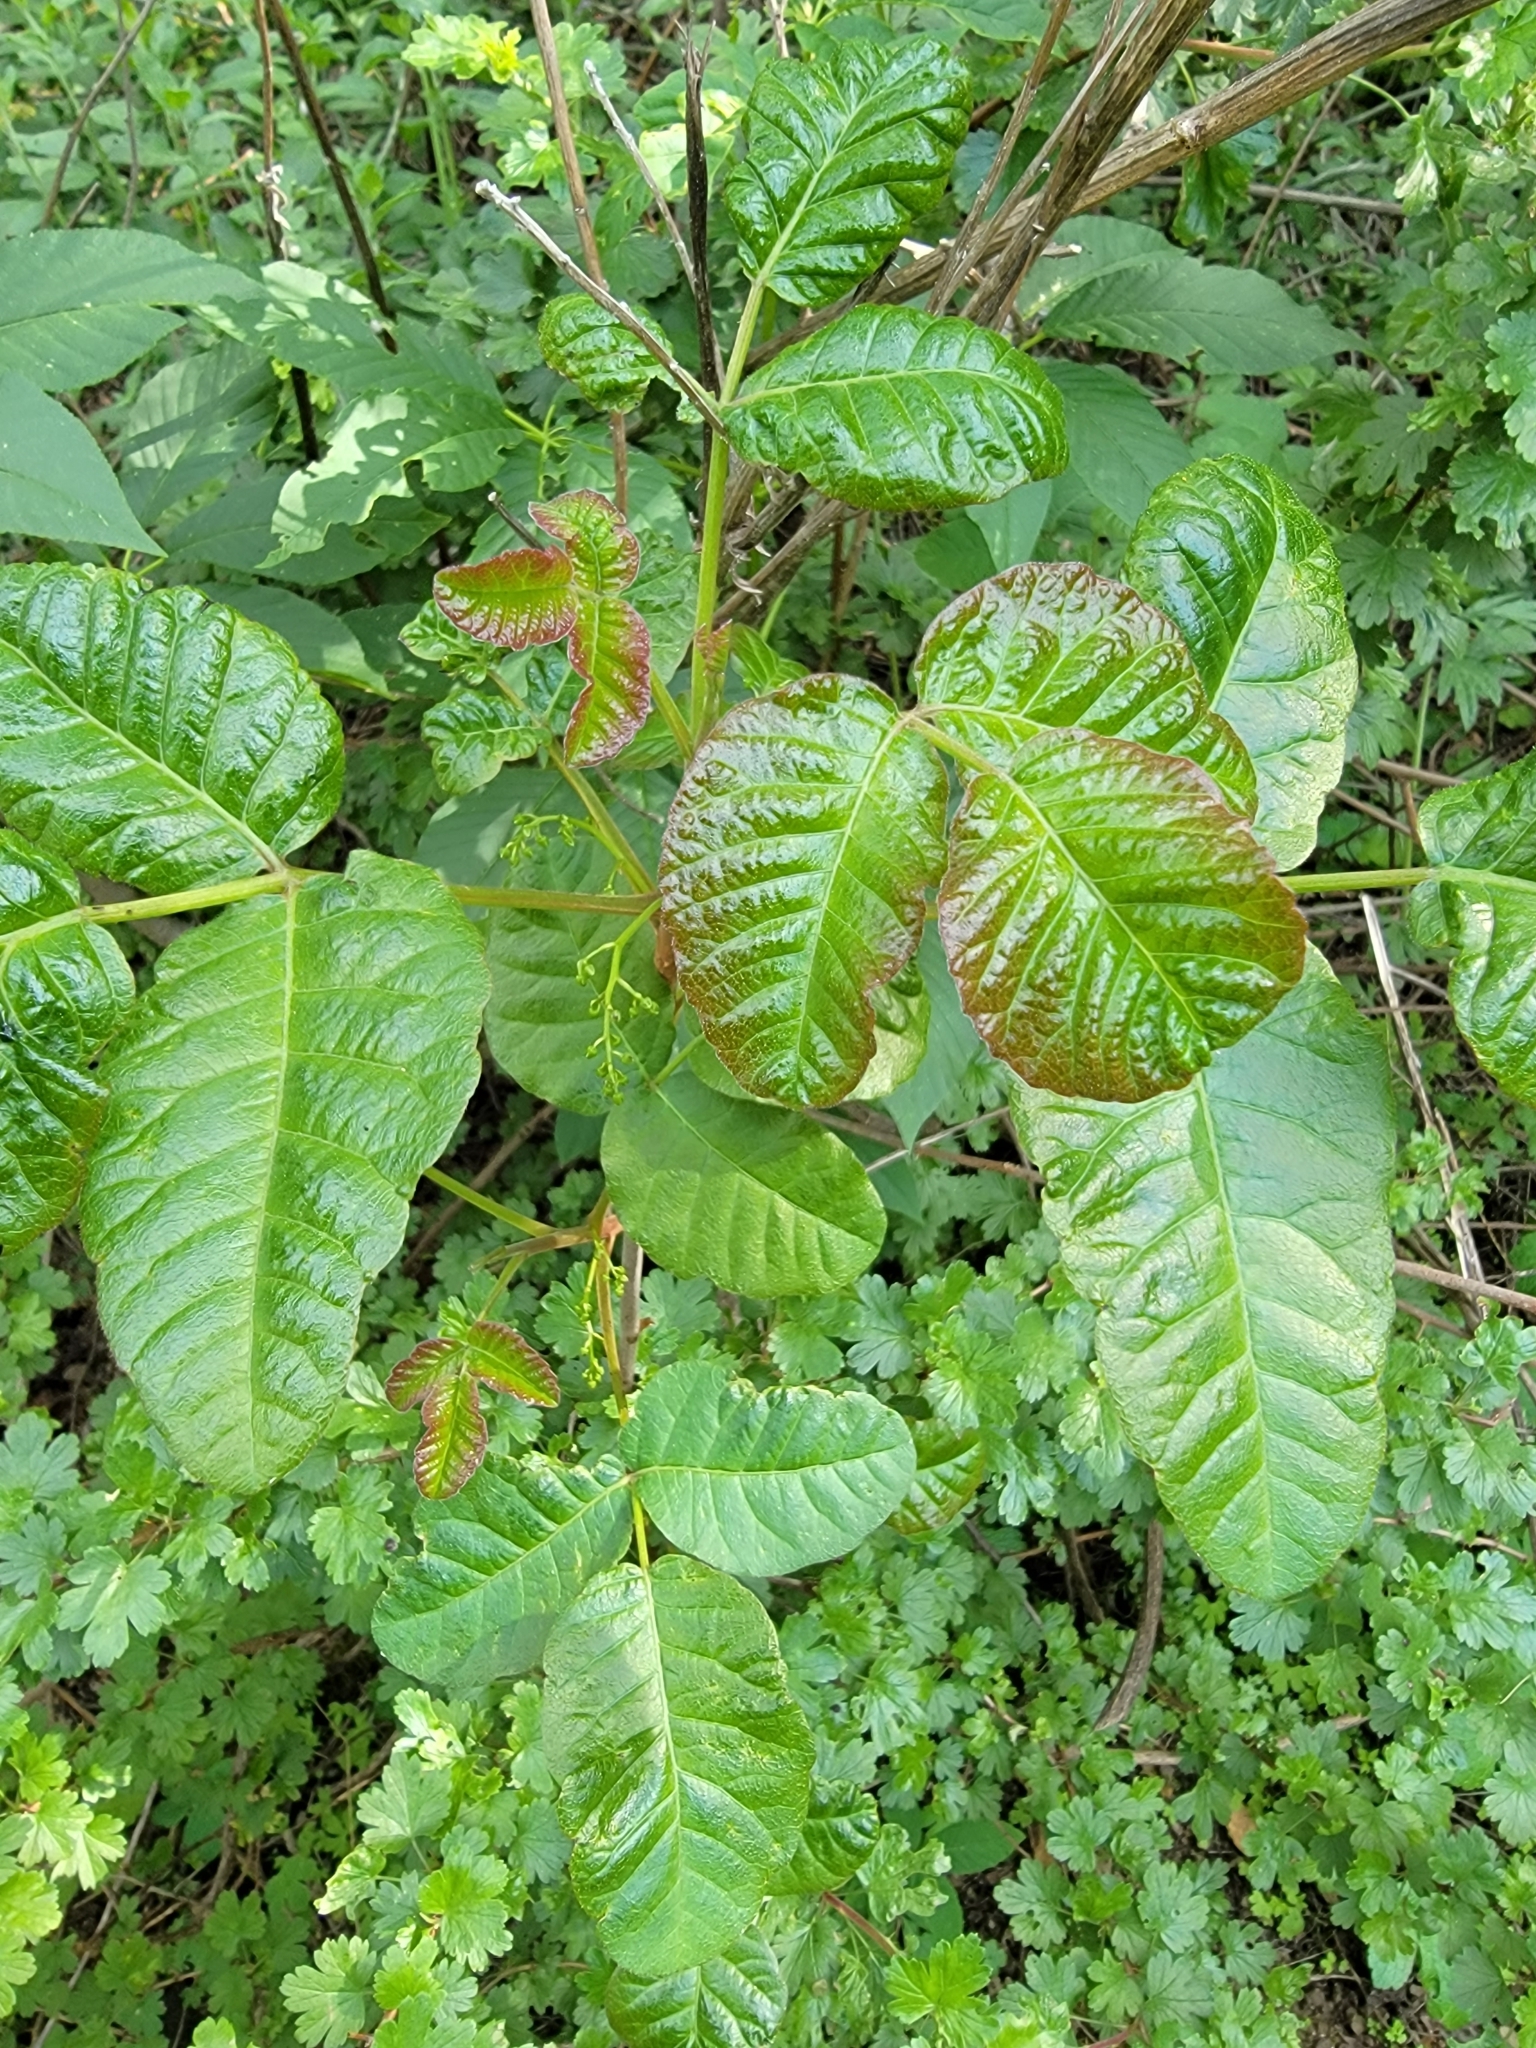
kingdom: Plantae
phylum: Tracheophyta
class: Magnoliopsida
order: Sapindales
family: Anacardiaceae
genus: Toxicodendron
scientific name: Toxicodendron diversilobum
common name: Pacific poison-oak
